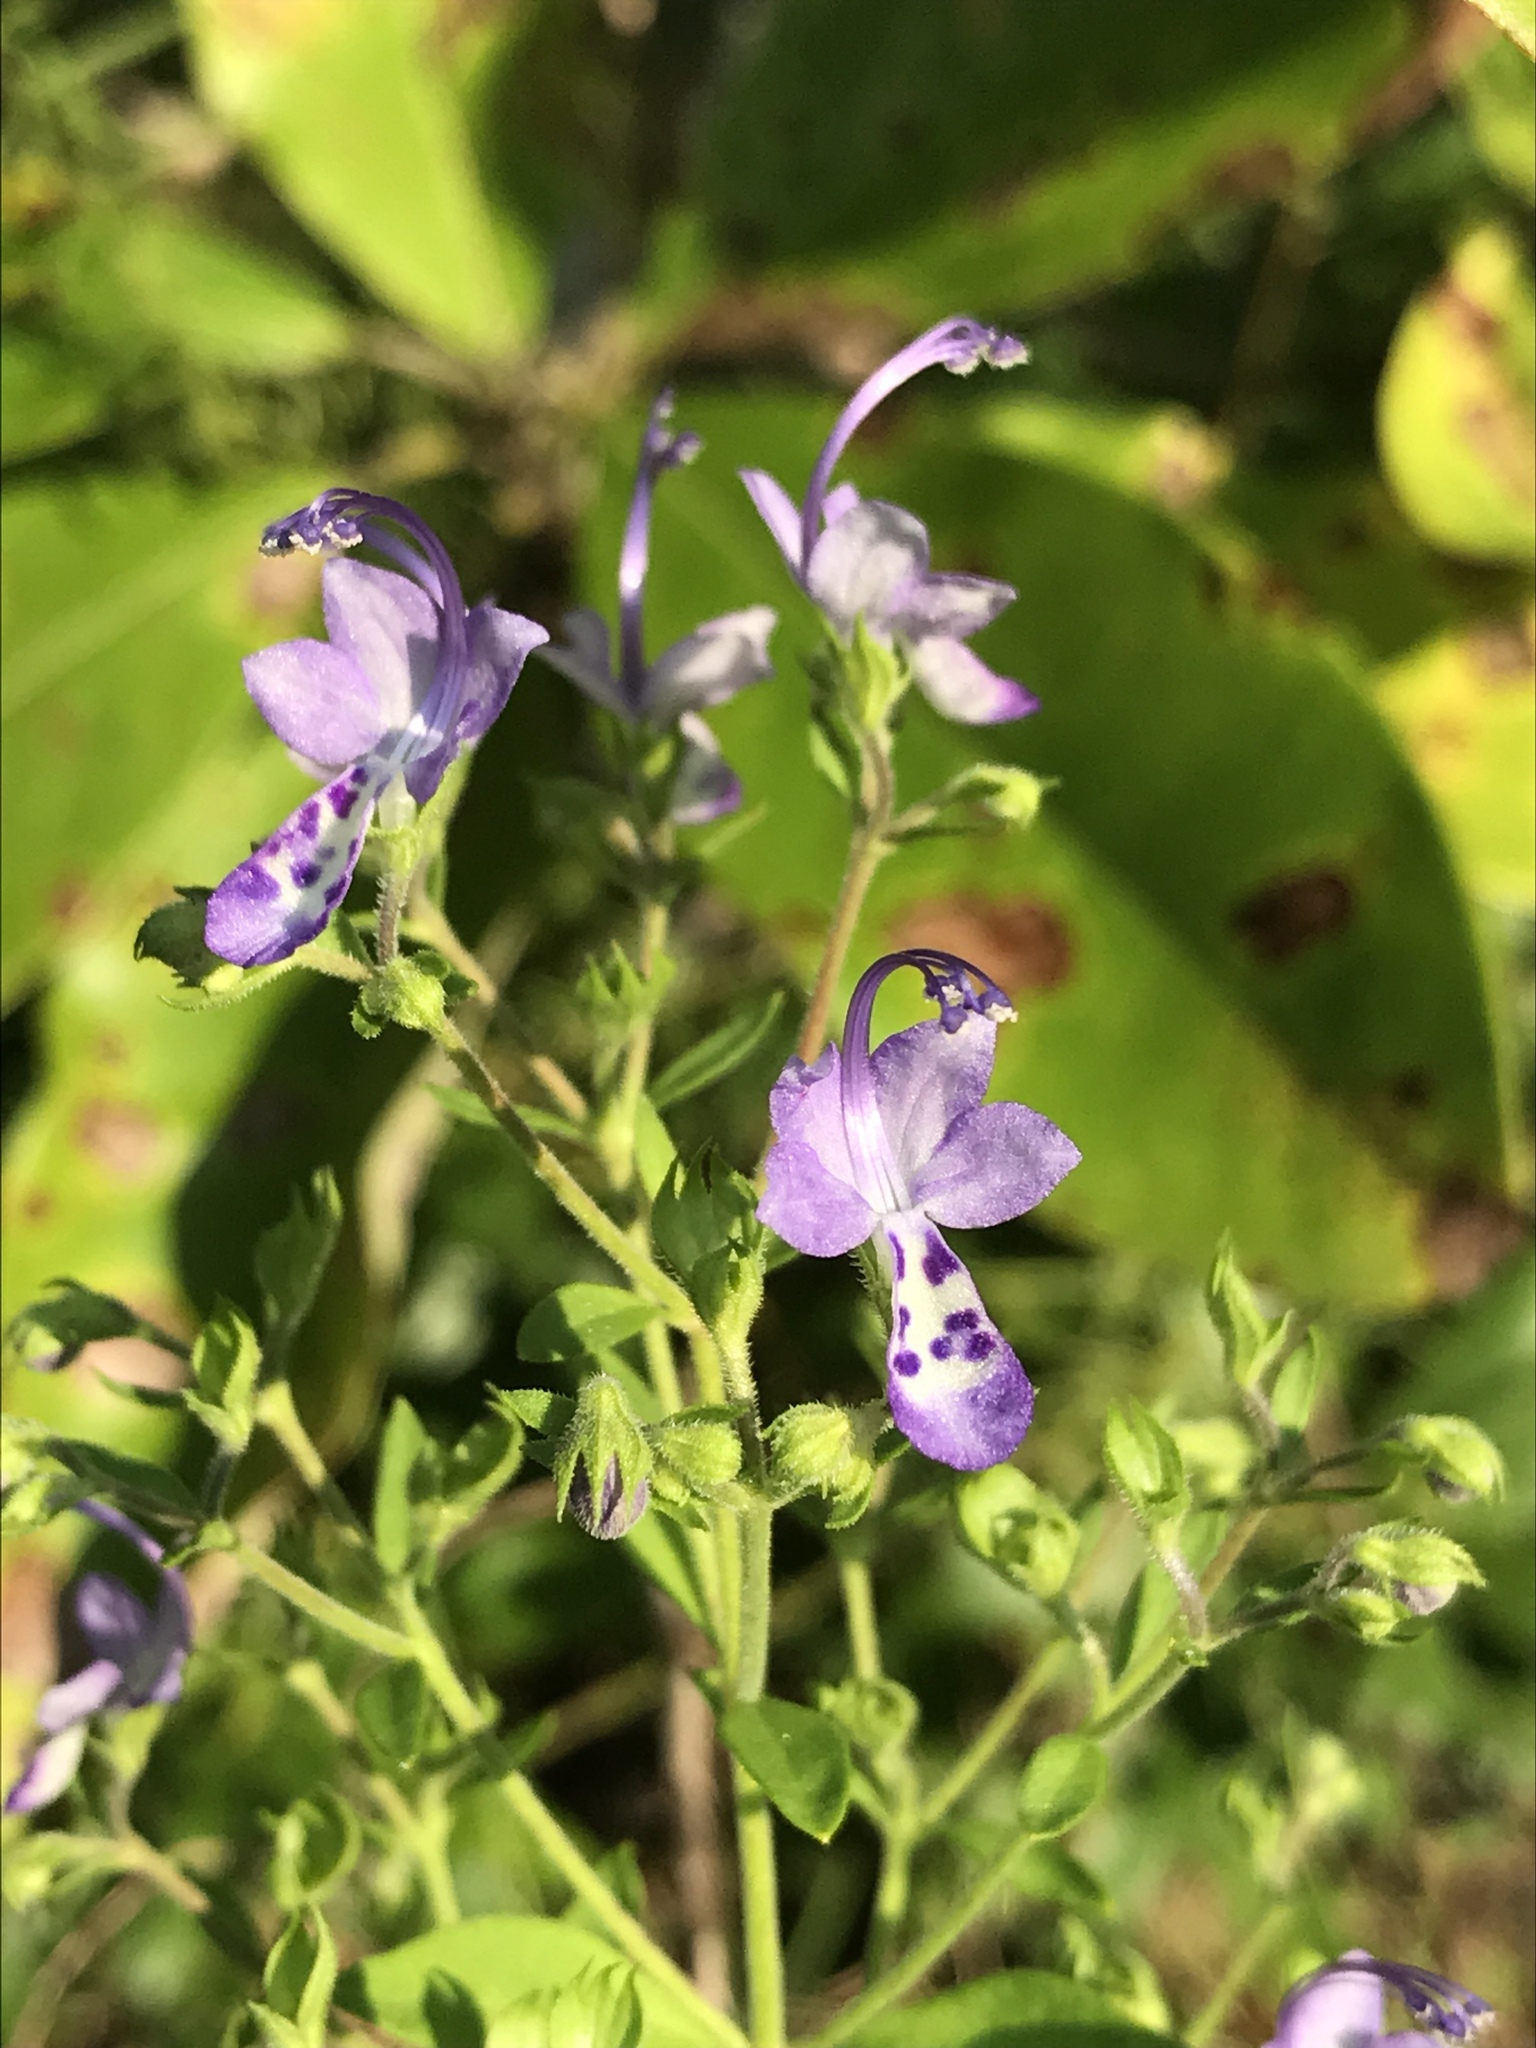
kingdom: Plantae
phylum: Tracheophyta
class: Magnoliopsida
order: Lamiales
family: Lamiaceae
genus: Trichostema
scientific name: Trichostema dichotomum
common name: Bastard pennyroyal
